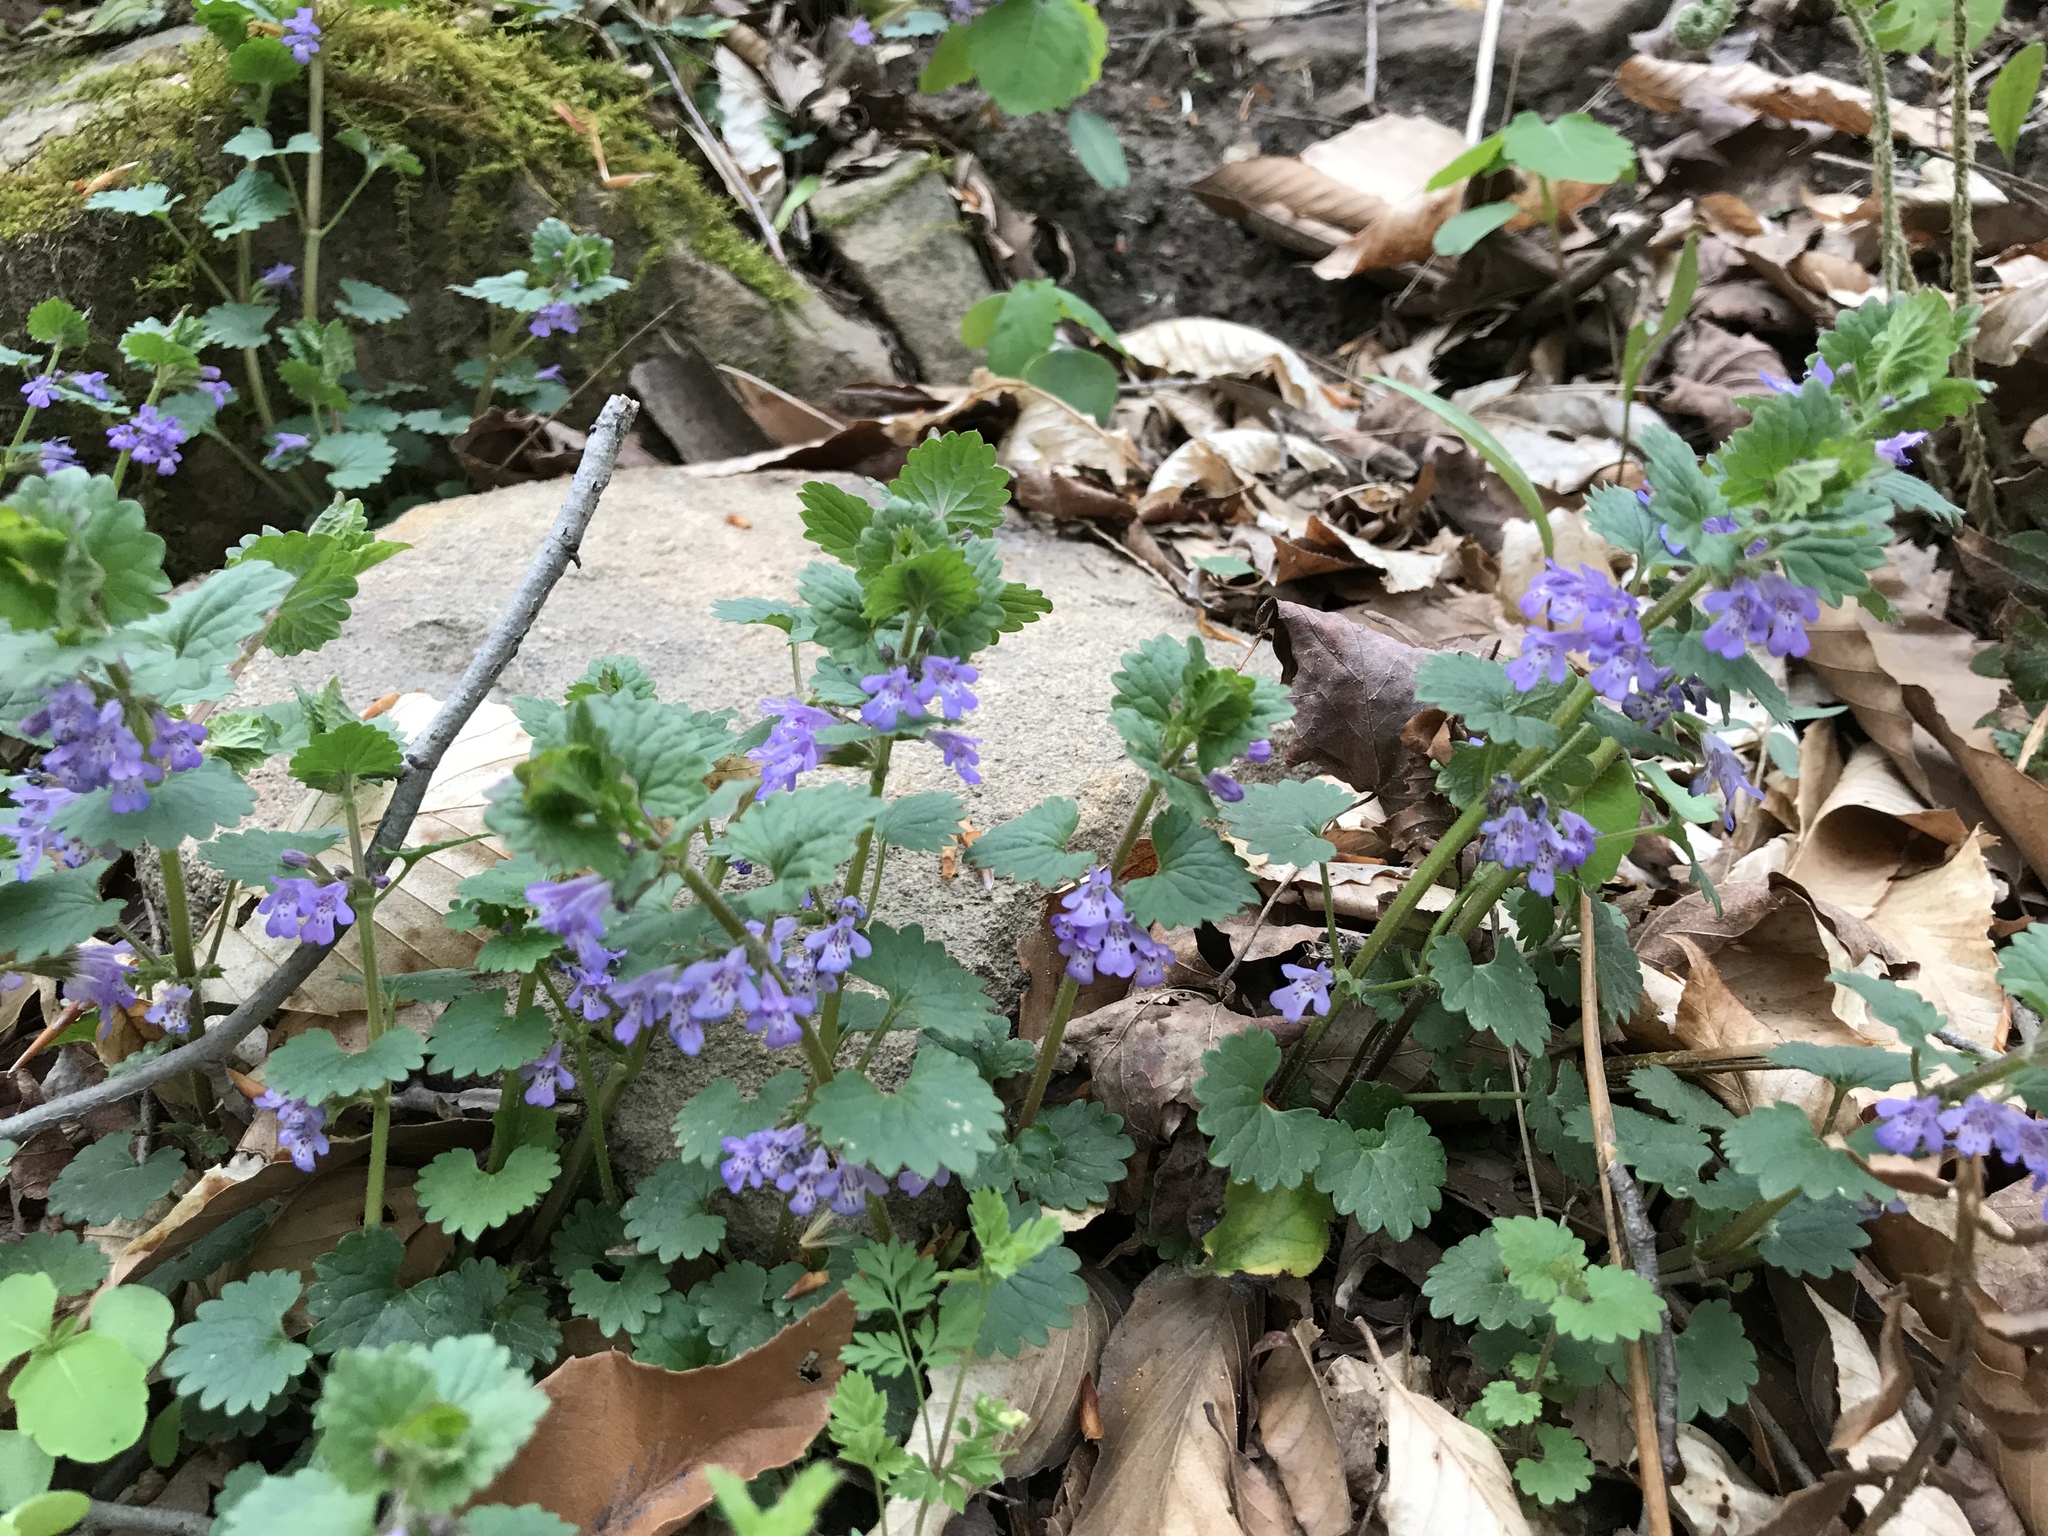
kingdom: Plantae
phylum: Tracheophyta
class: Magnoliopsida
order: Lamiales
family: Lamiaceae
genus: Glechoma
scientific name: Glechoma hederacea
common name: Ground ivy
